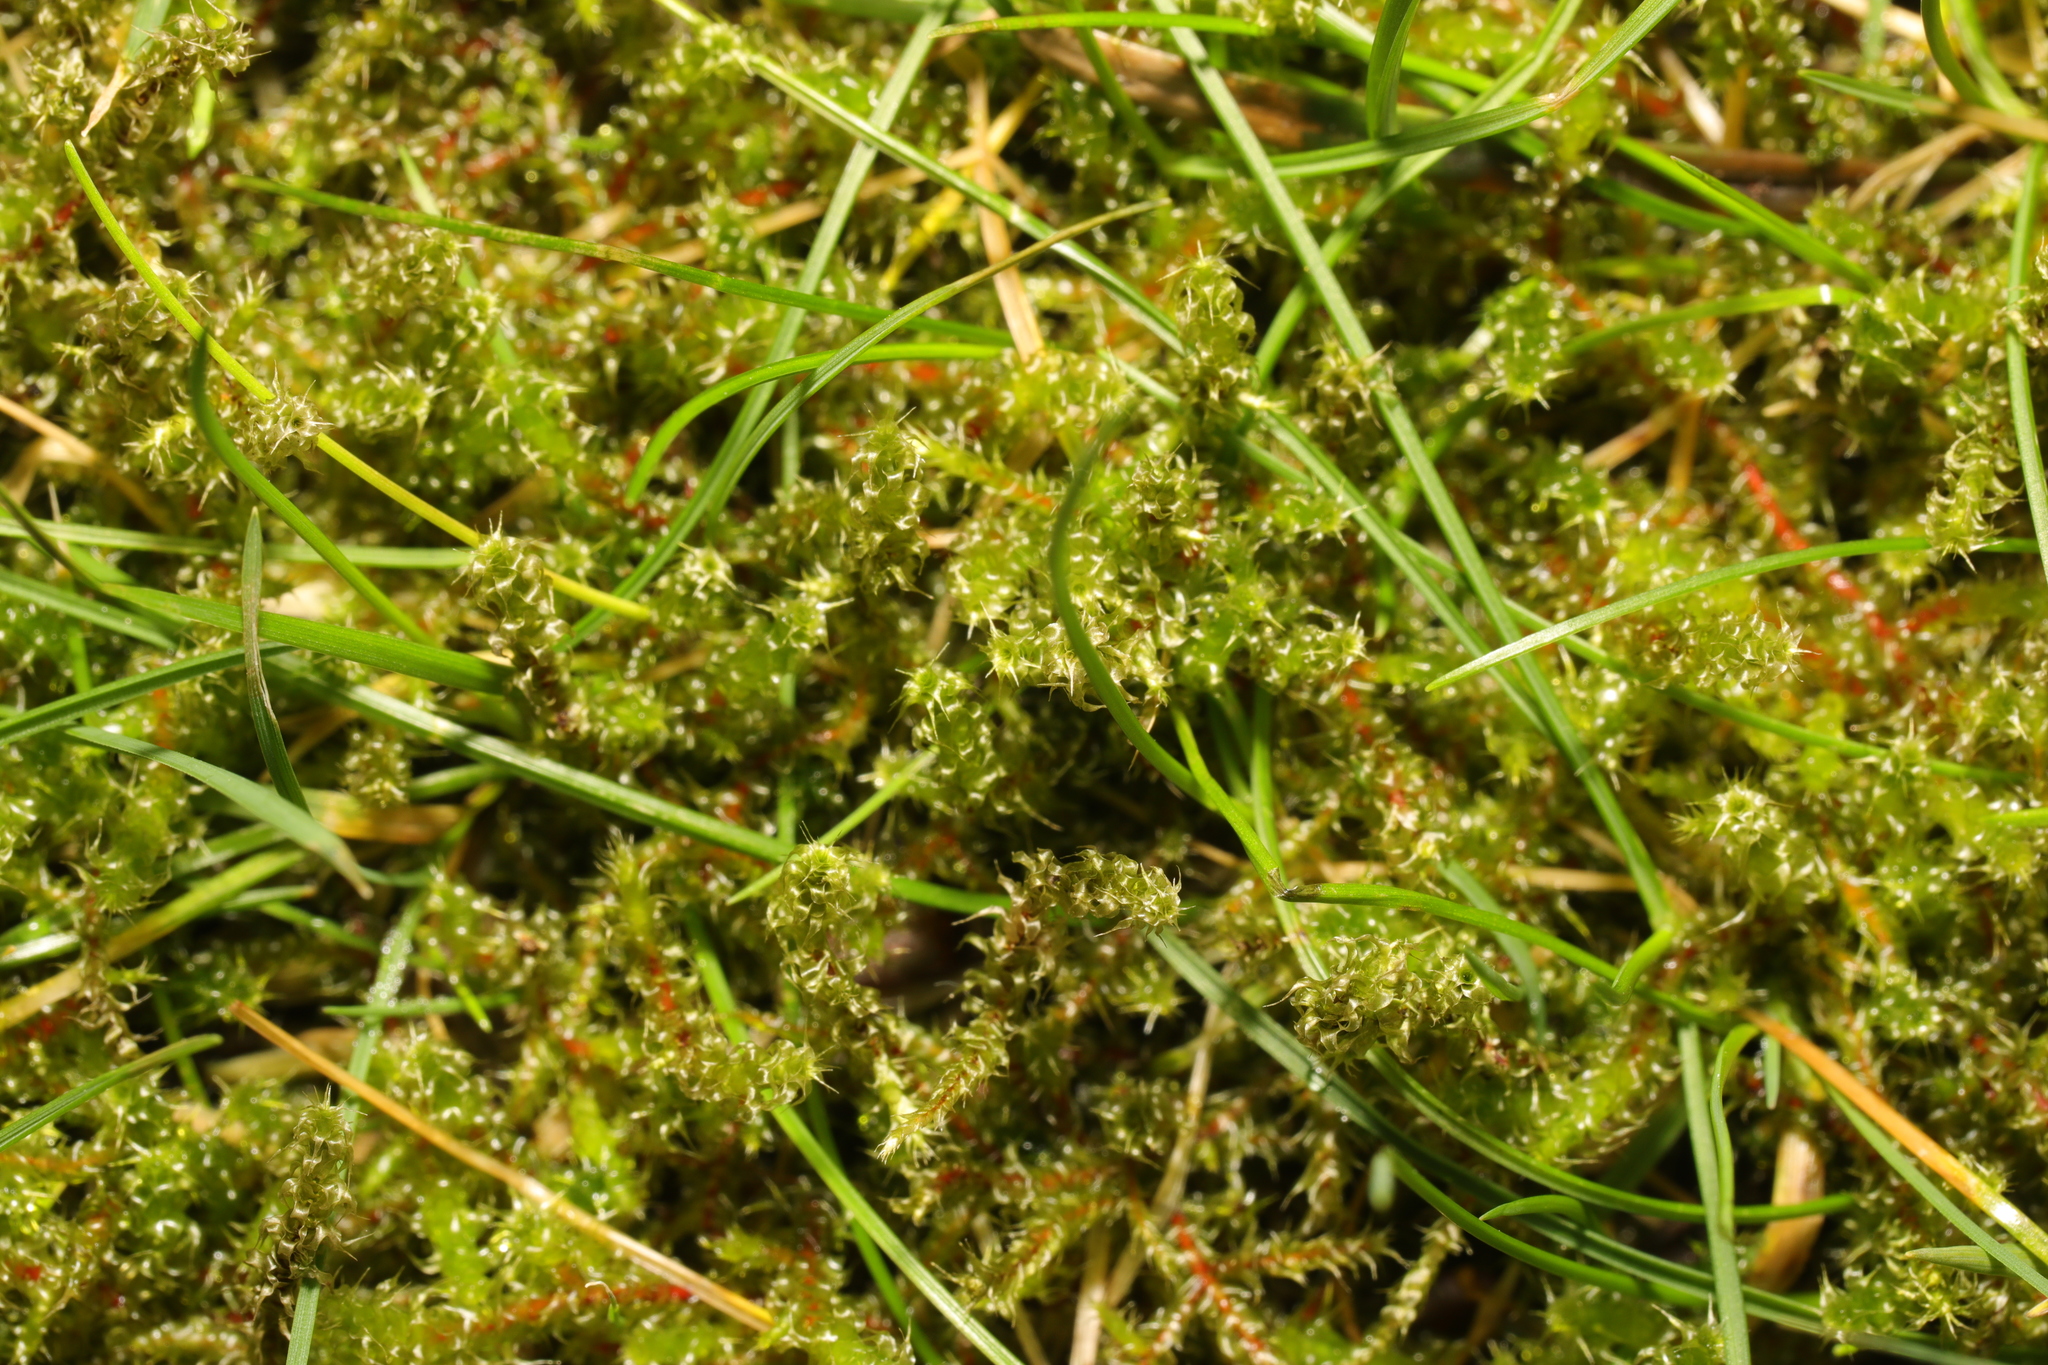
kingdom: Plantae
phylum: Bryophyta
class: Bryopsida
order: Hypnales
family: Hylocomiaceae
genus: Rhytidiadelphus
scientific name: Rhytidiadelphus squarrosus
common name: Springy turf-moss
